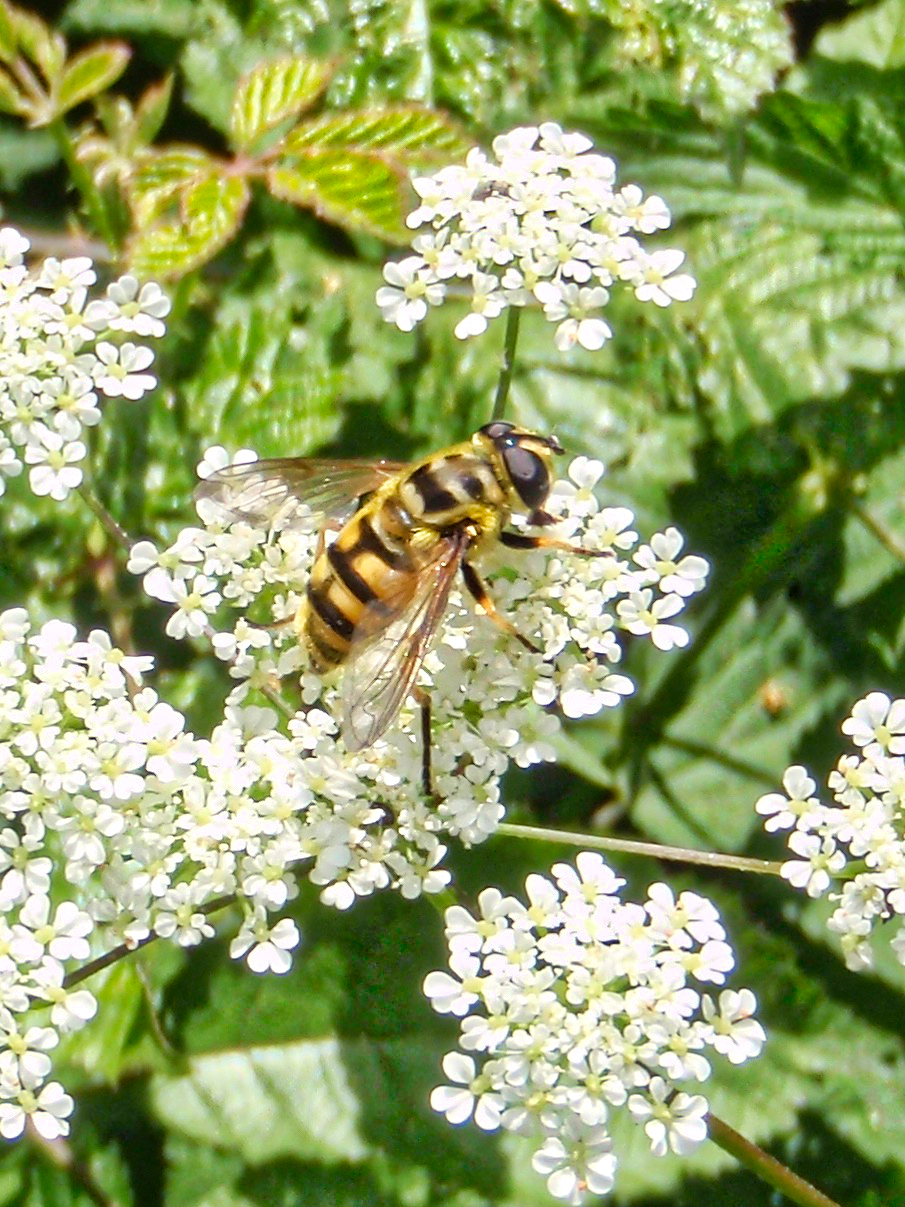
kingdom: Animalia
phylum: Arthropoda
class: Insecta
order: Diptera
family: Syrphidae
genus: Myathropa
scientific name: Myathropa florea
